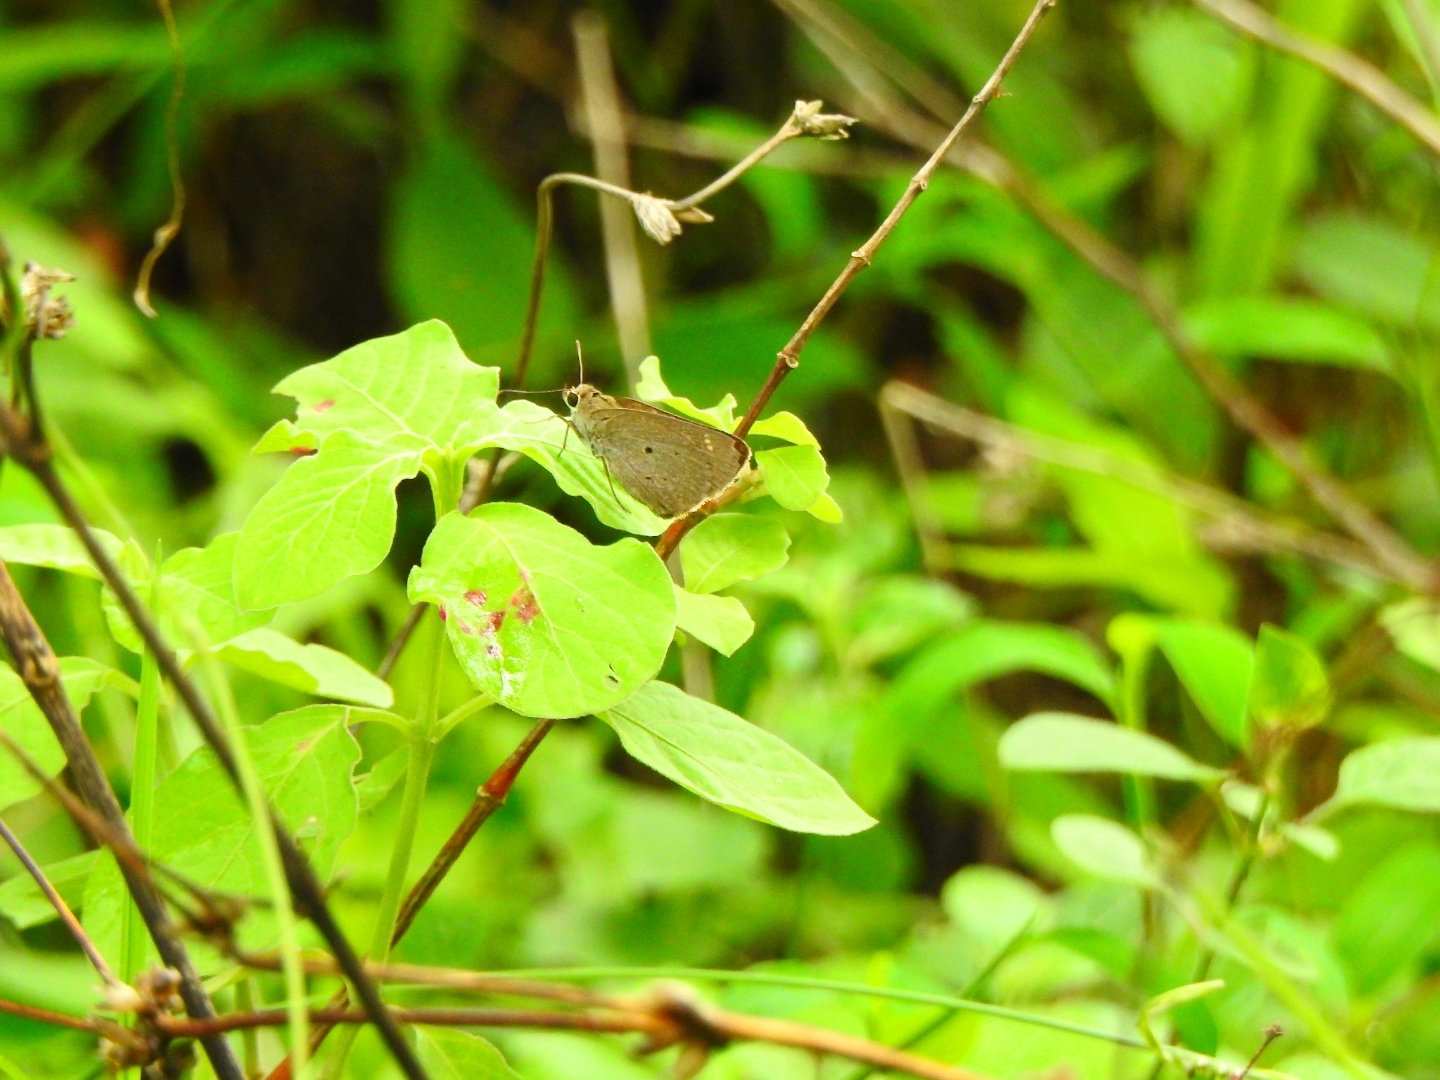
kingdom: Animalia
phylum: Arthropoda
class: Insecta
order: Lepidoptera
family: Hesperiidae
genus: Suastus
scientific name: Suastus gremius
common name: Indian palm bob
